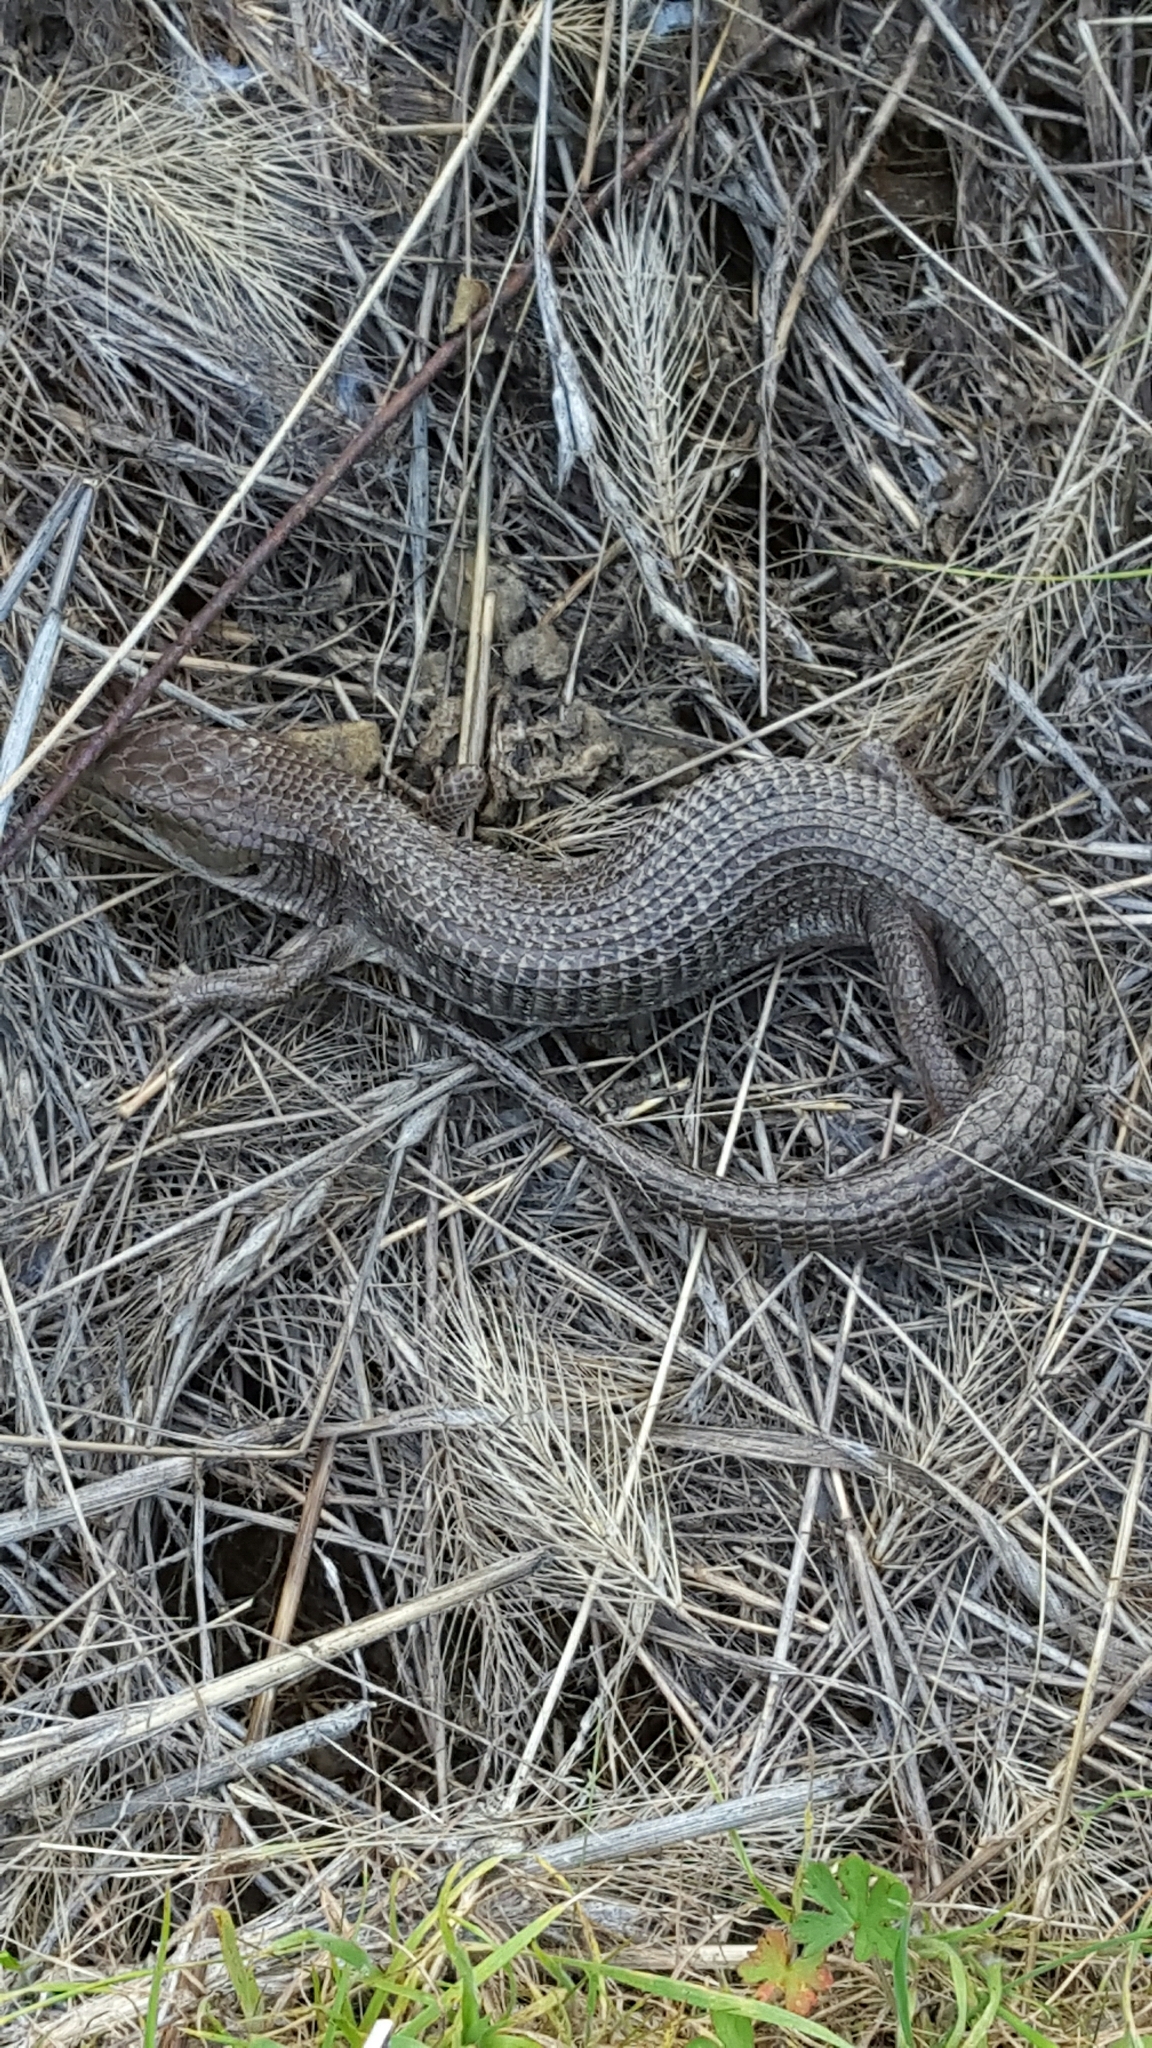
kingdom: Animalia
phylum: Chordata
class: Squamata
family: Anguidae
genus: Elgaria
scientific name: Elgaria multicarinata
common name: Southern alligator lizard
